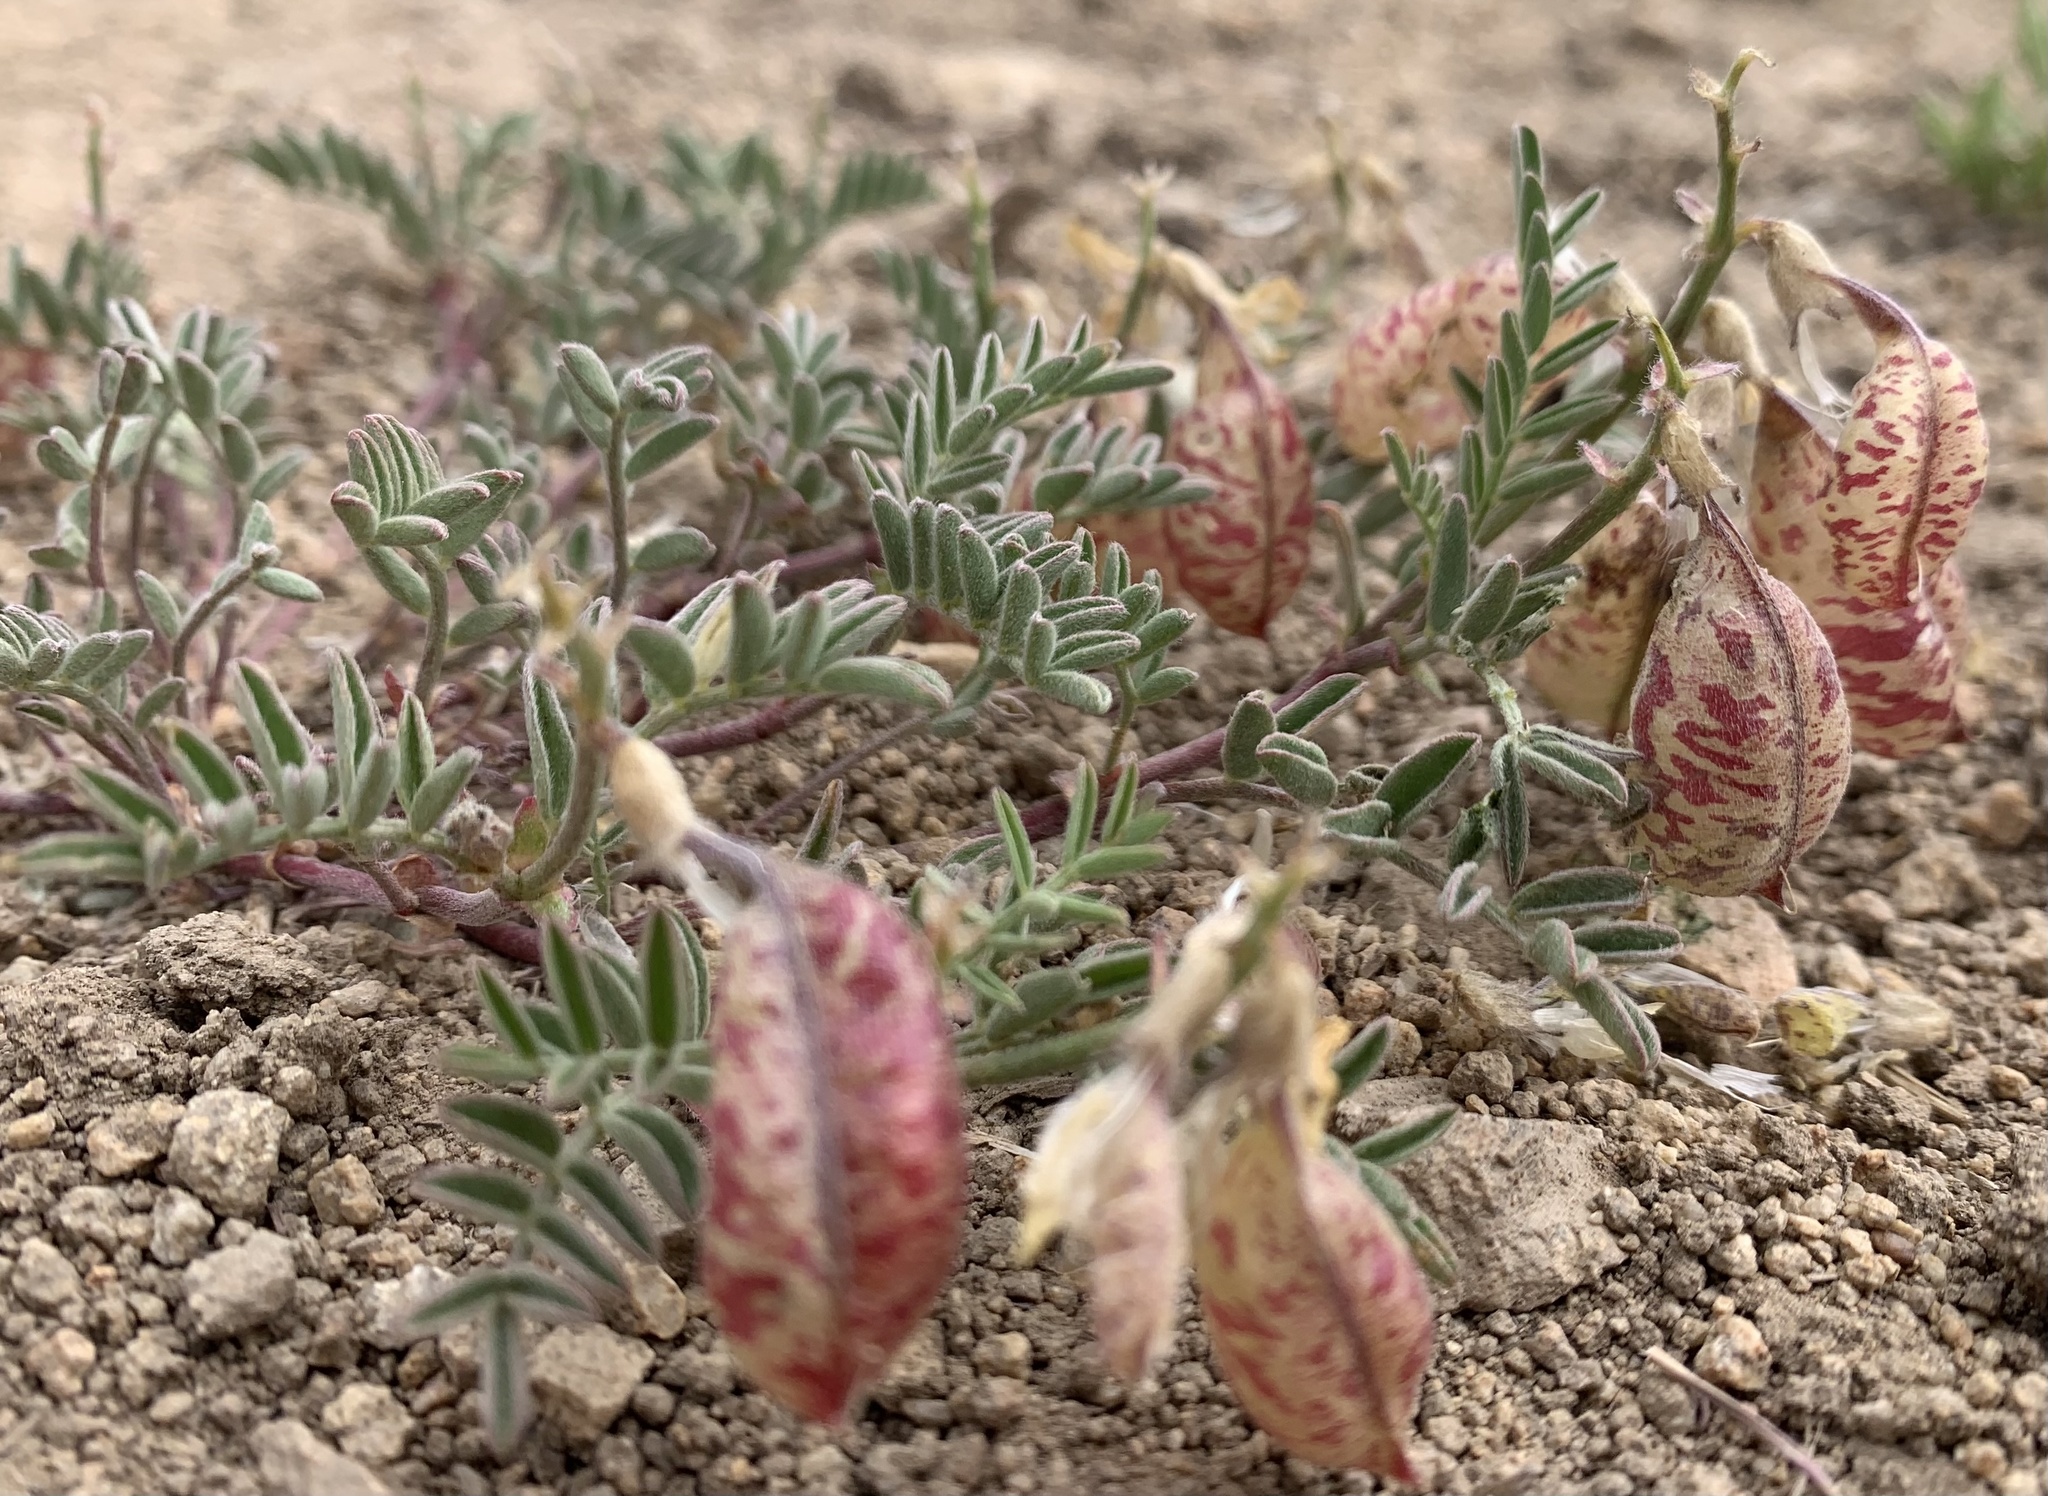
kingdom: Plantae
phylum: Tracheophyta
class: Magnoliopsida
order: Fabales
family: Fabaceae
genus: Astragalus
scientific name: Astragalus whitneyi
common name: Balloonpod milkvetch
